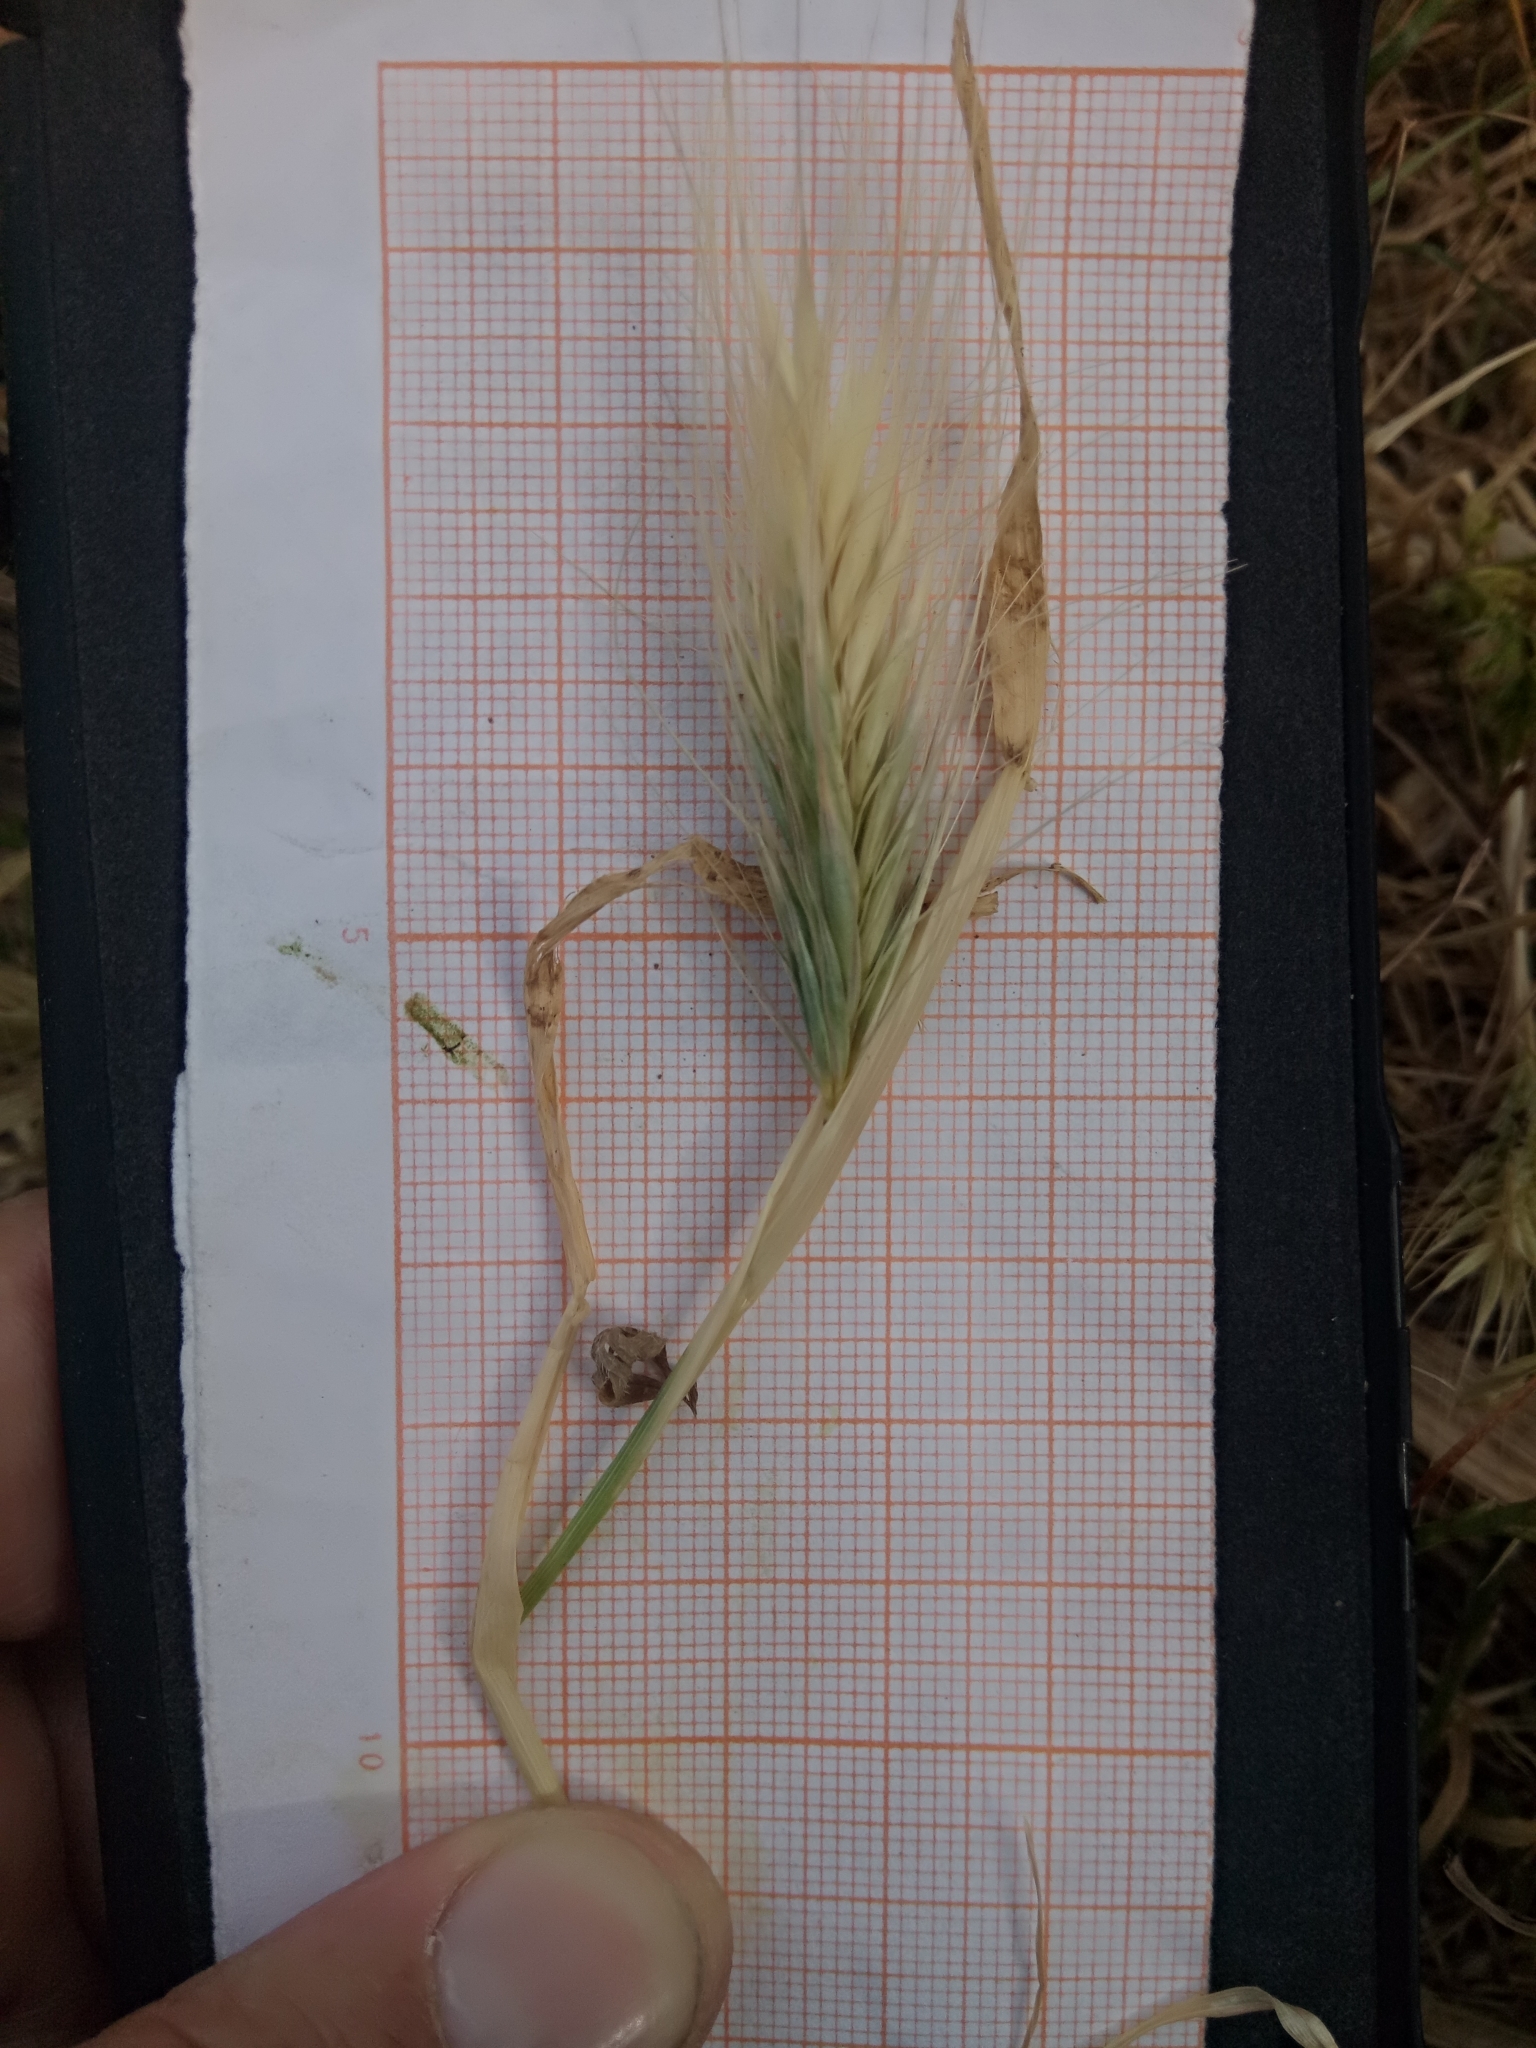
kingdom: Plantae
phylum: Tracheophyta
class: Liliopsida
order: Poales
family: Poaceae
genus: Hordeum
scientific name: Hordeum murinum
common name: Wall barley
